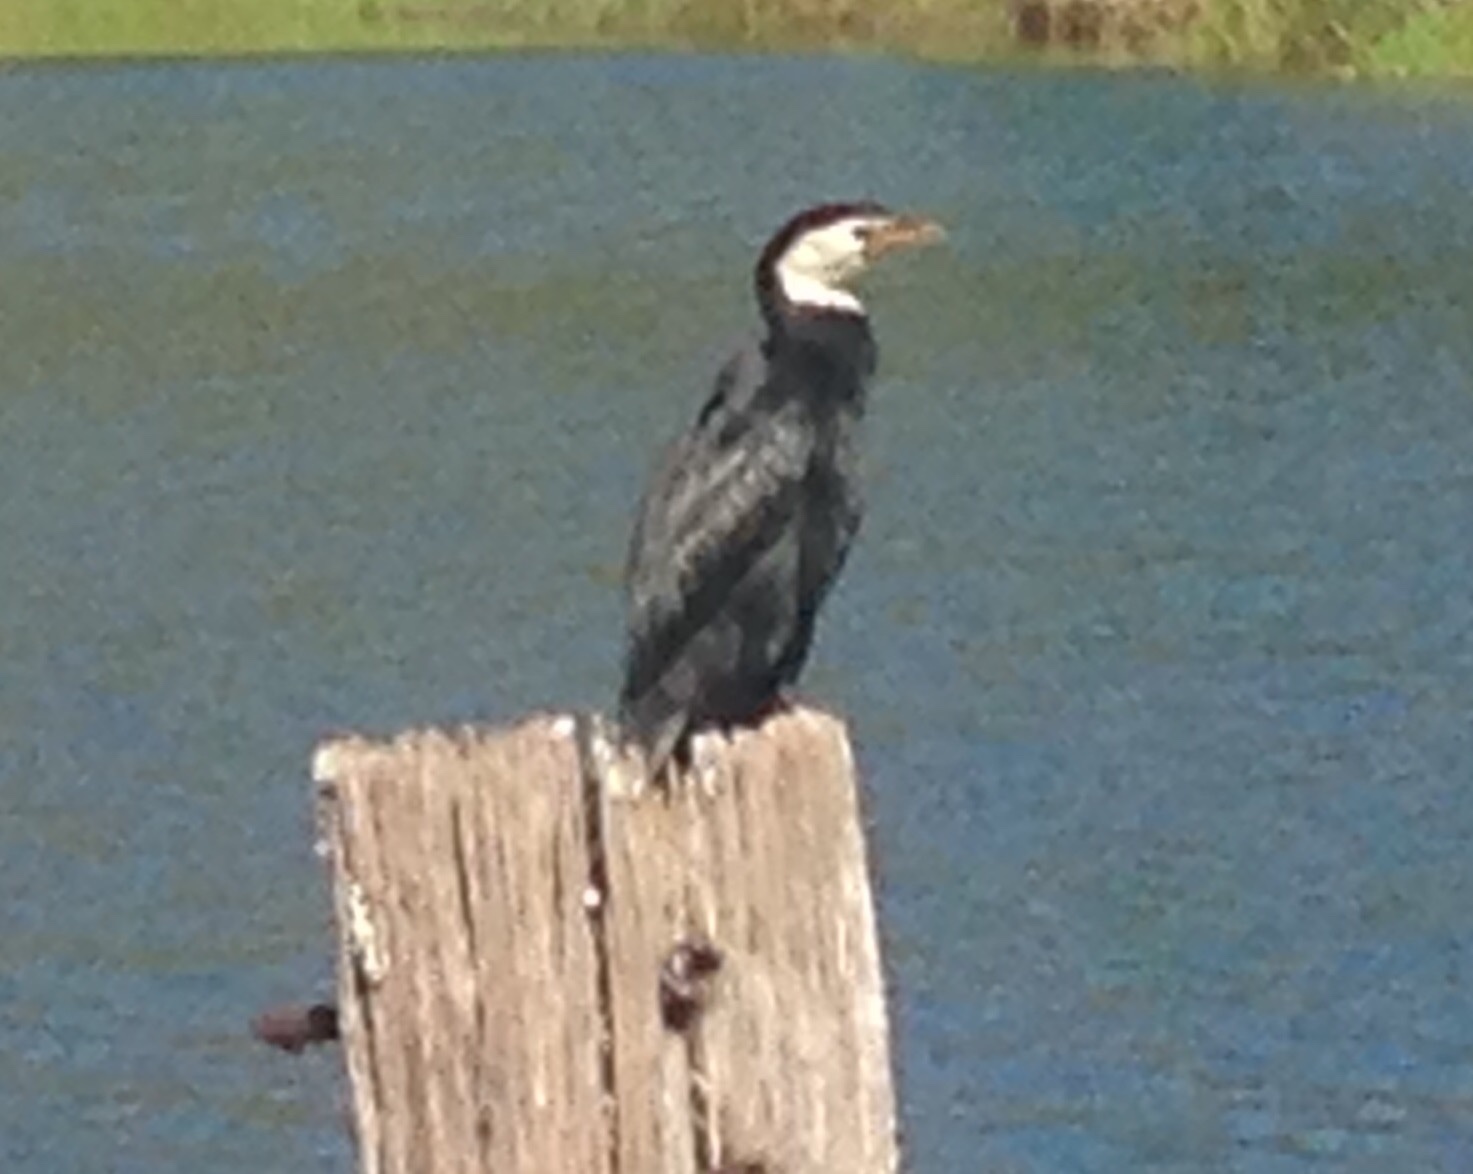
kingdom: Animalia
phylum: Chordata
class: Aves
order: Suliformes
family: Phalacrocoracidae
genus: Microcarbo
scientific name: Microcarbo melanoleucos
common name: Little pied cormorant
